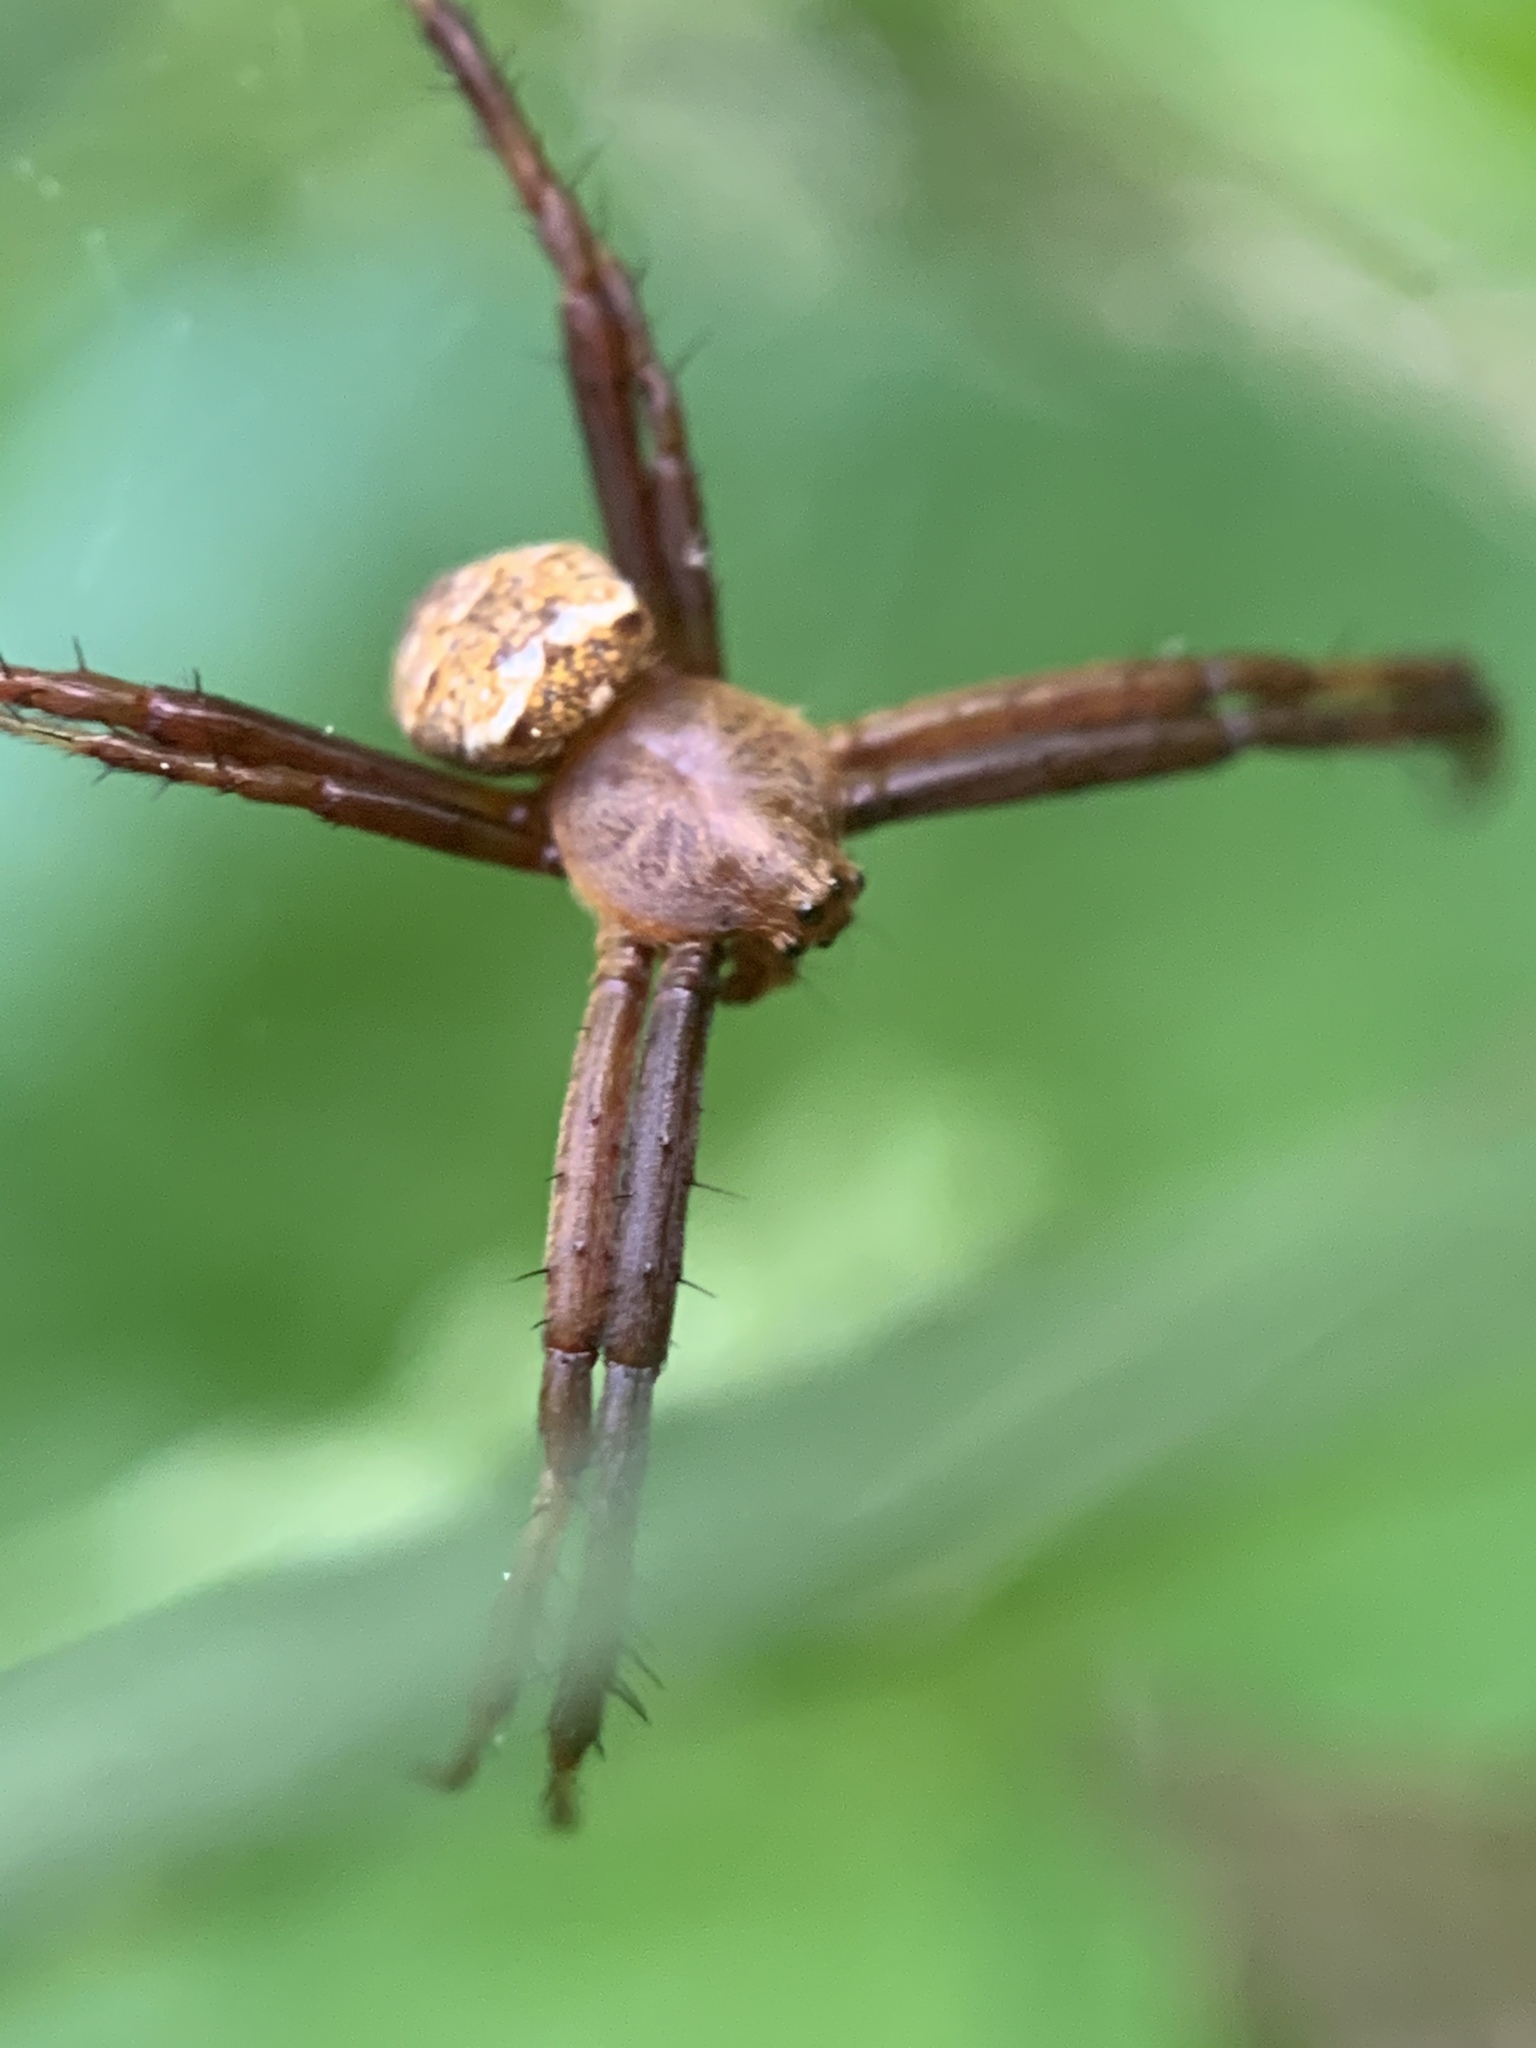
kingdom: Animalia
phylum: Arthropoda
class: Arachnida
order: Araneae
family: Araneidae
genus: Gea
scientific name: Gea heptagon
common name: Orb weavers
